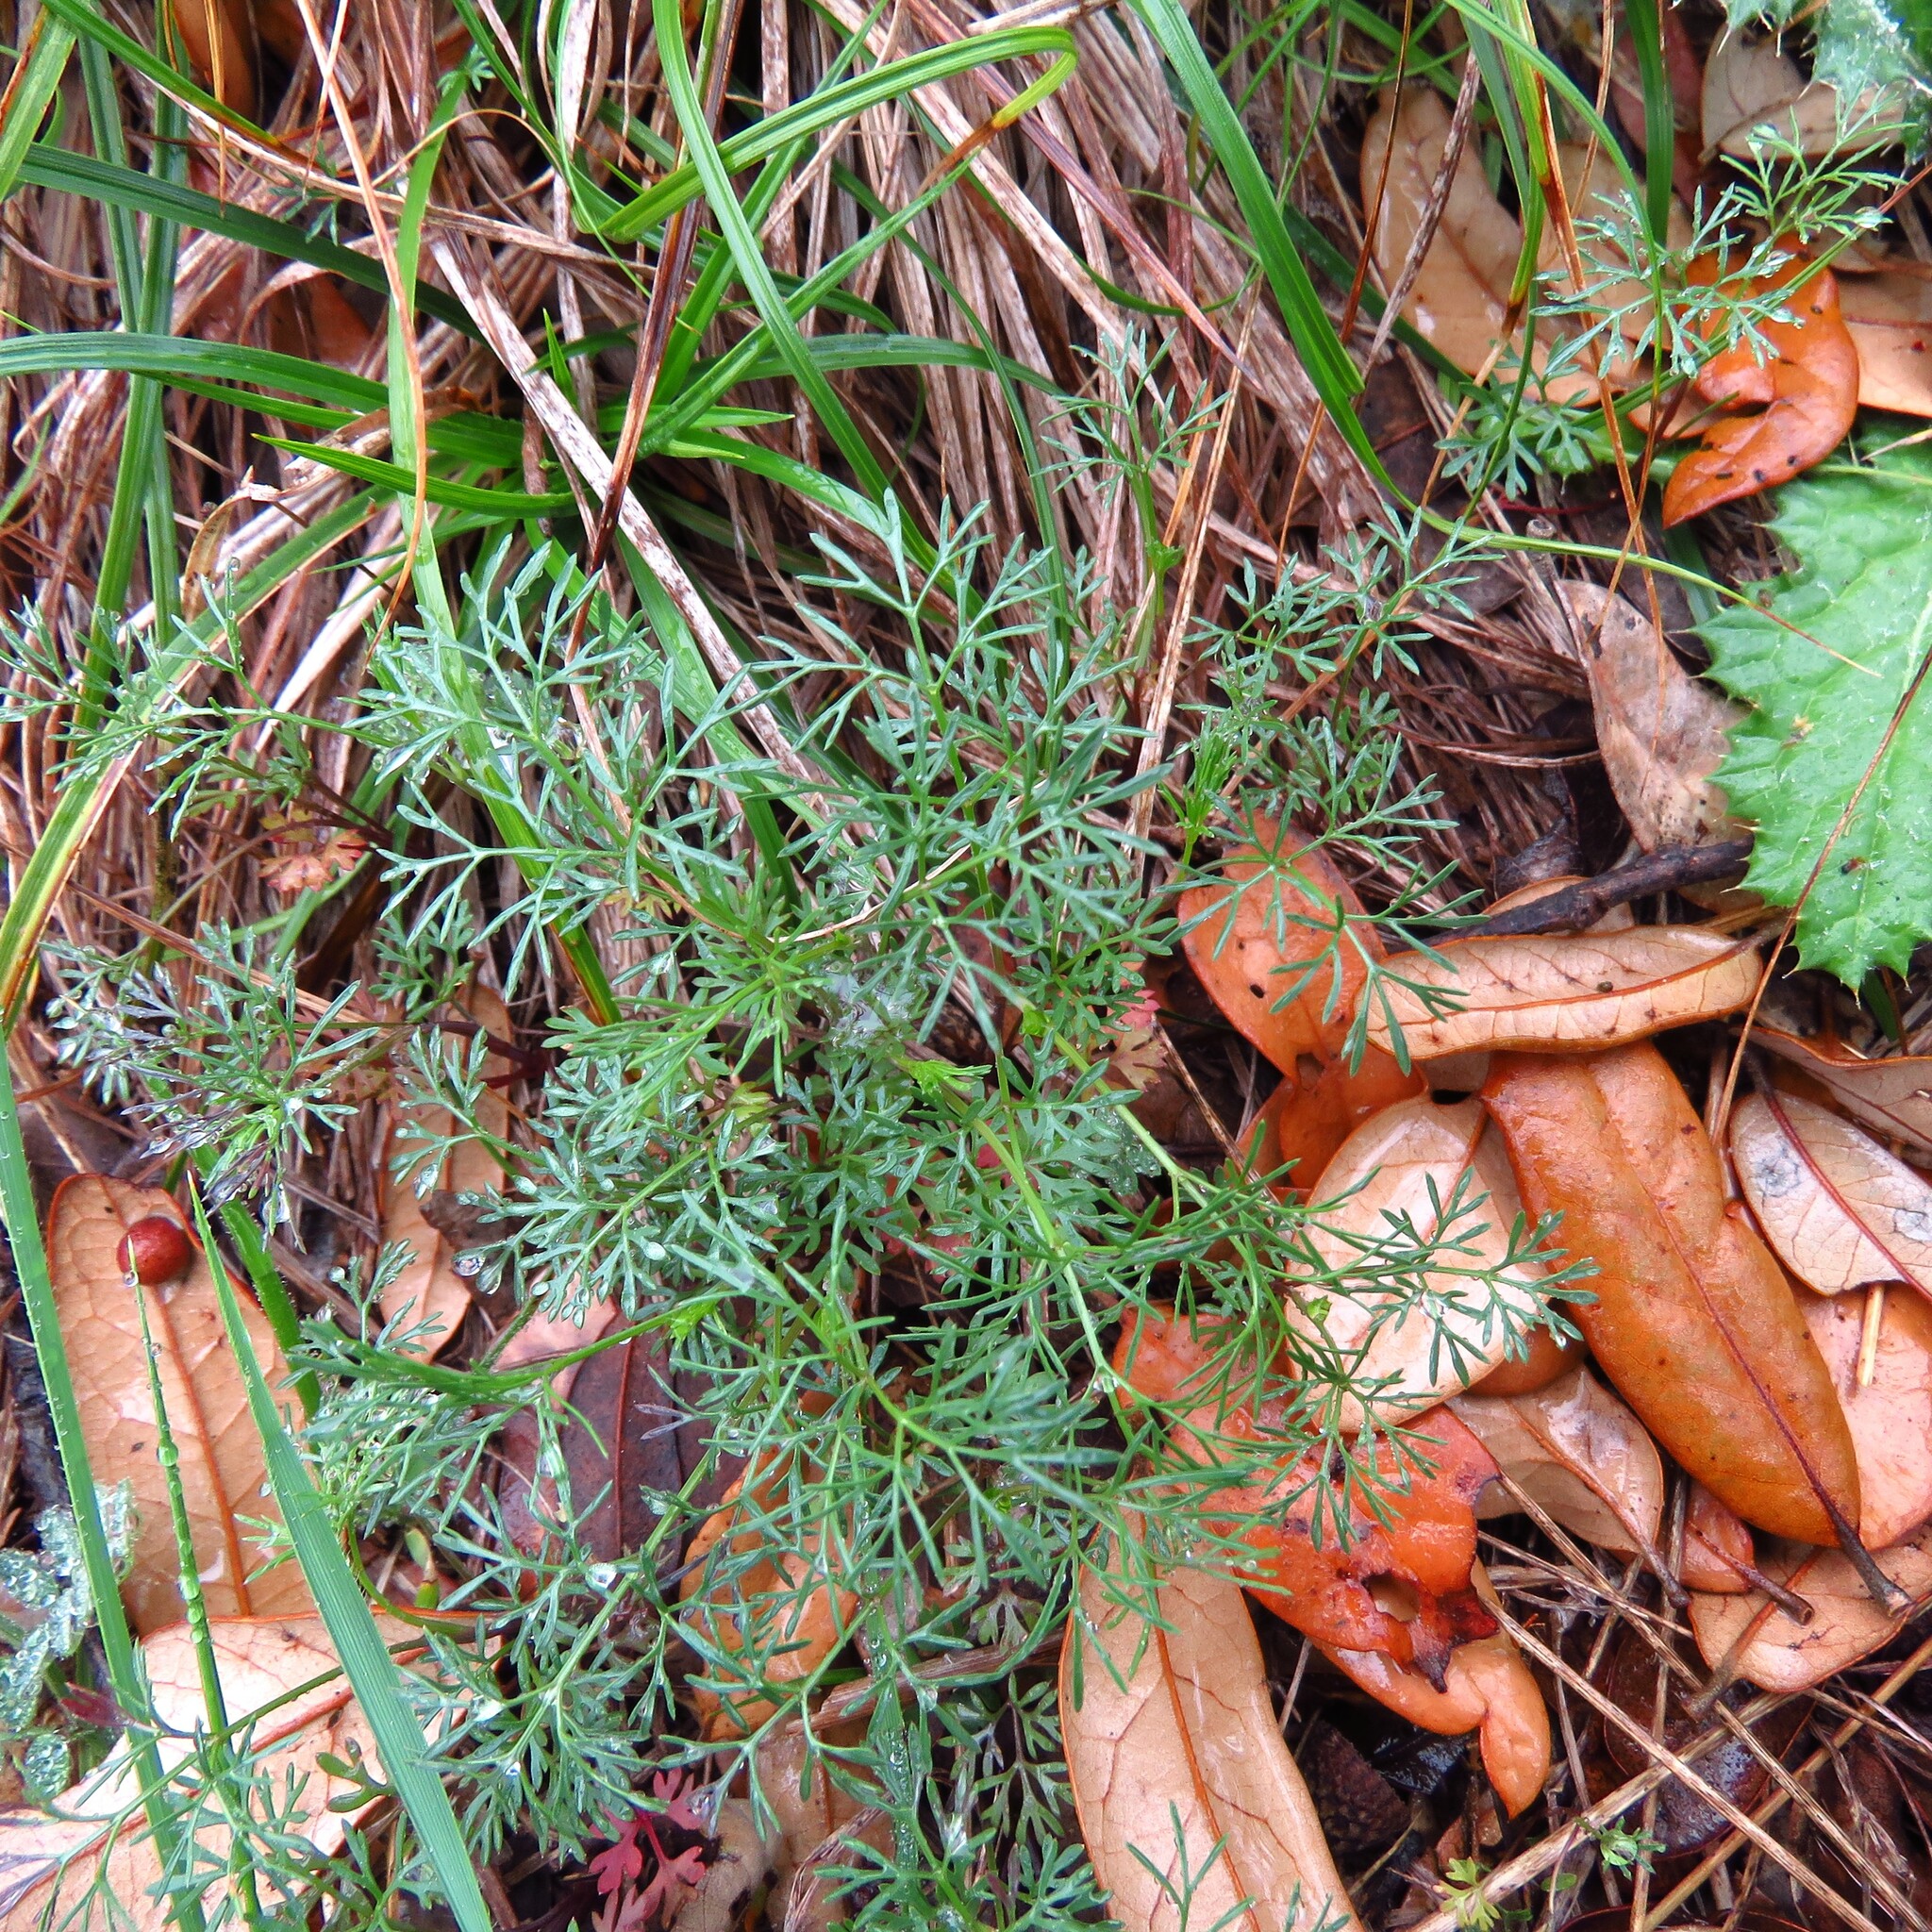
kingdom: Plantae
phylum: Tracheophyta
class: Magnoliopsida
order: Apiales
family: Apiaceae
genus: Cyclospermum
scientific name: Cyclospermum leptophyllum
